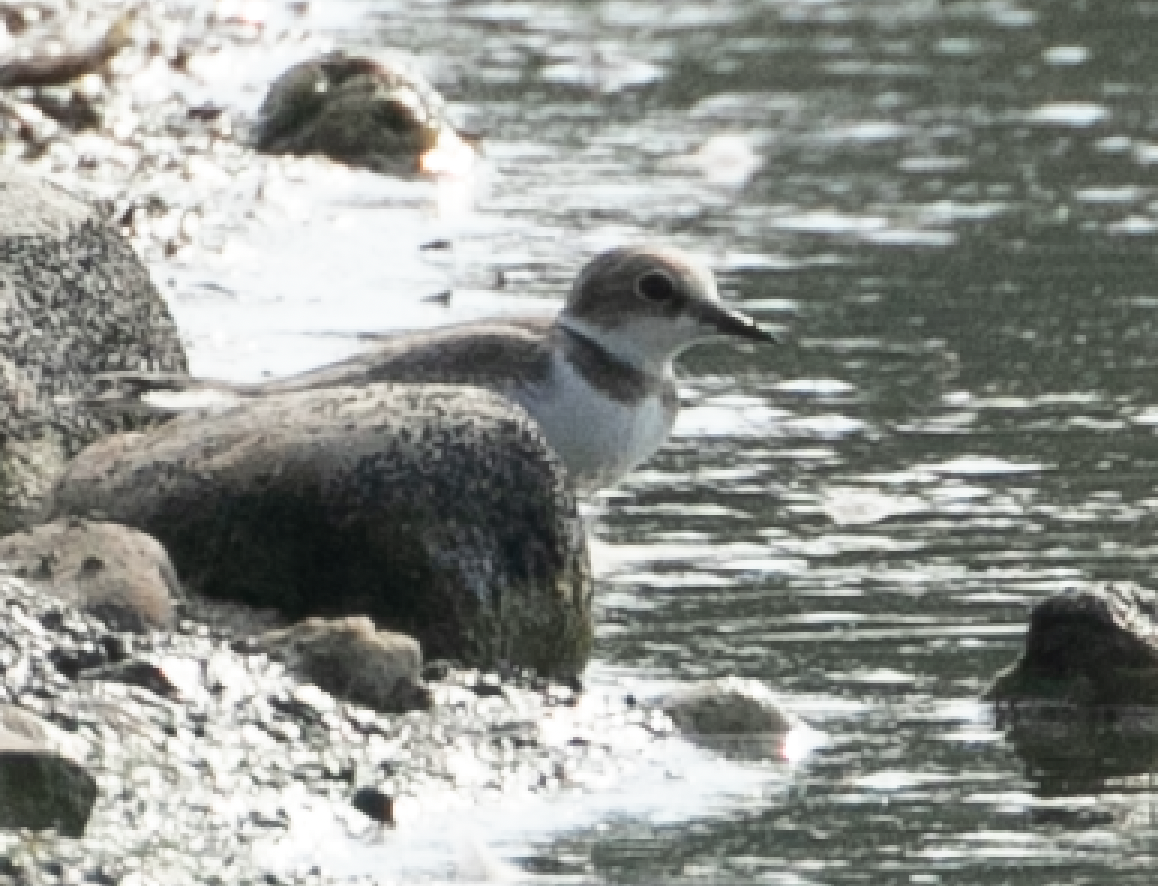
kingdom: Animalia
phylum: Chordata
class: Aves
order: Charadriiformes
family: Charadriidae
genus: Charadrius
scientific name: Charadrius dubius
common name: Little ringed plover
